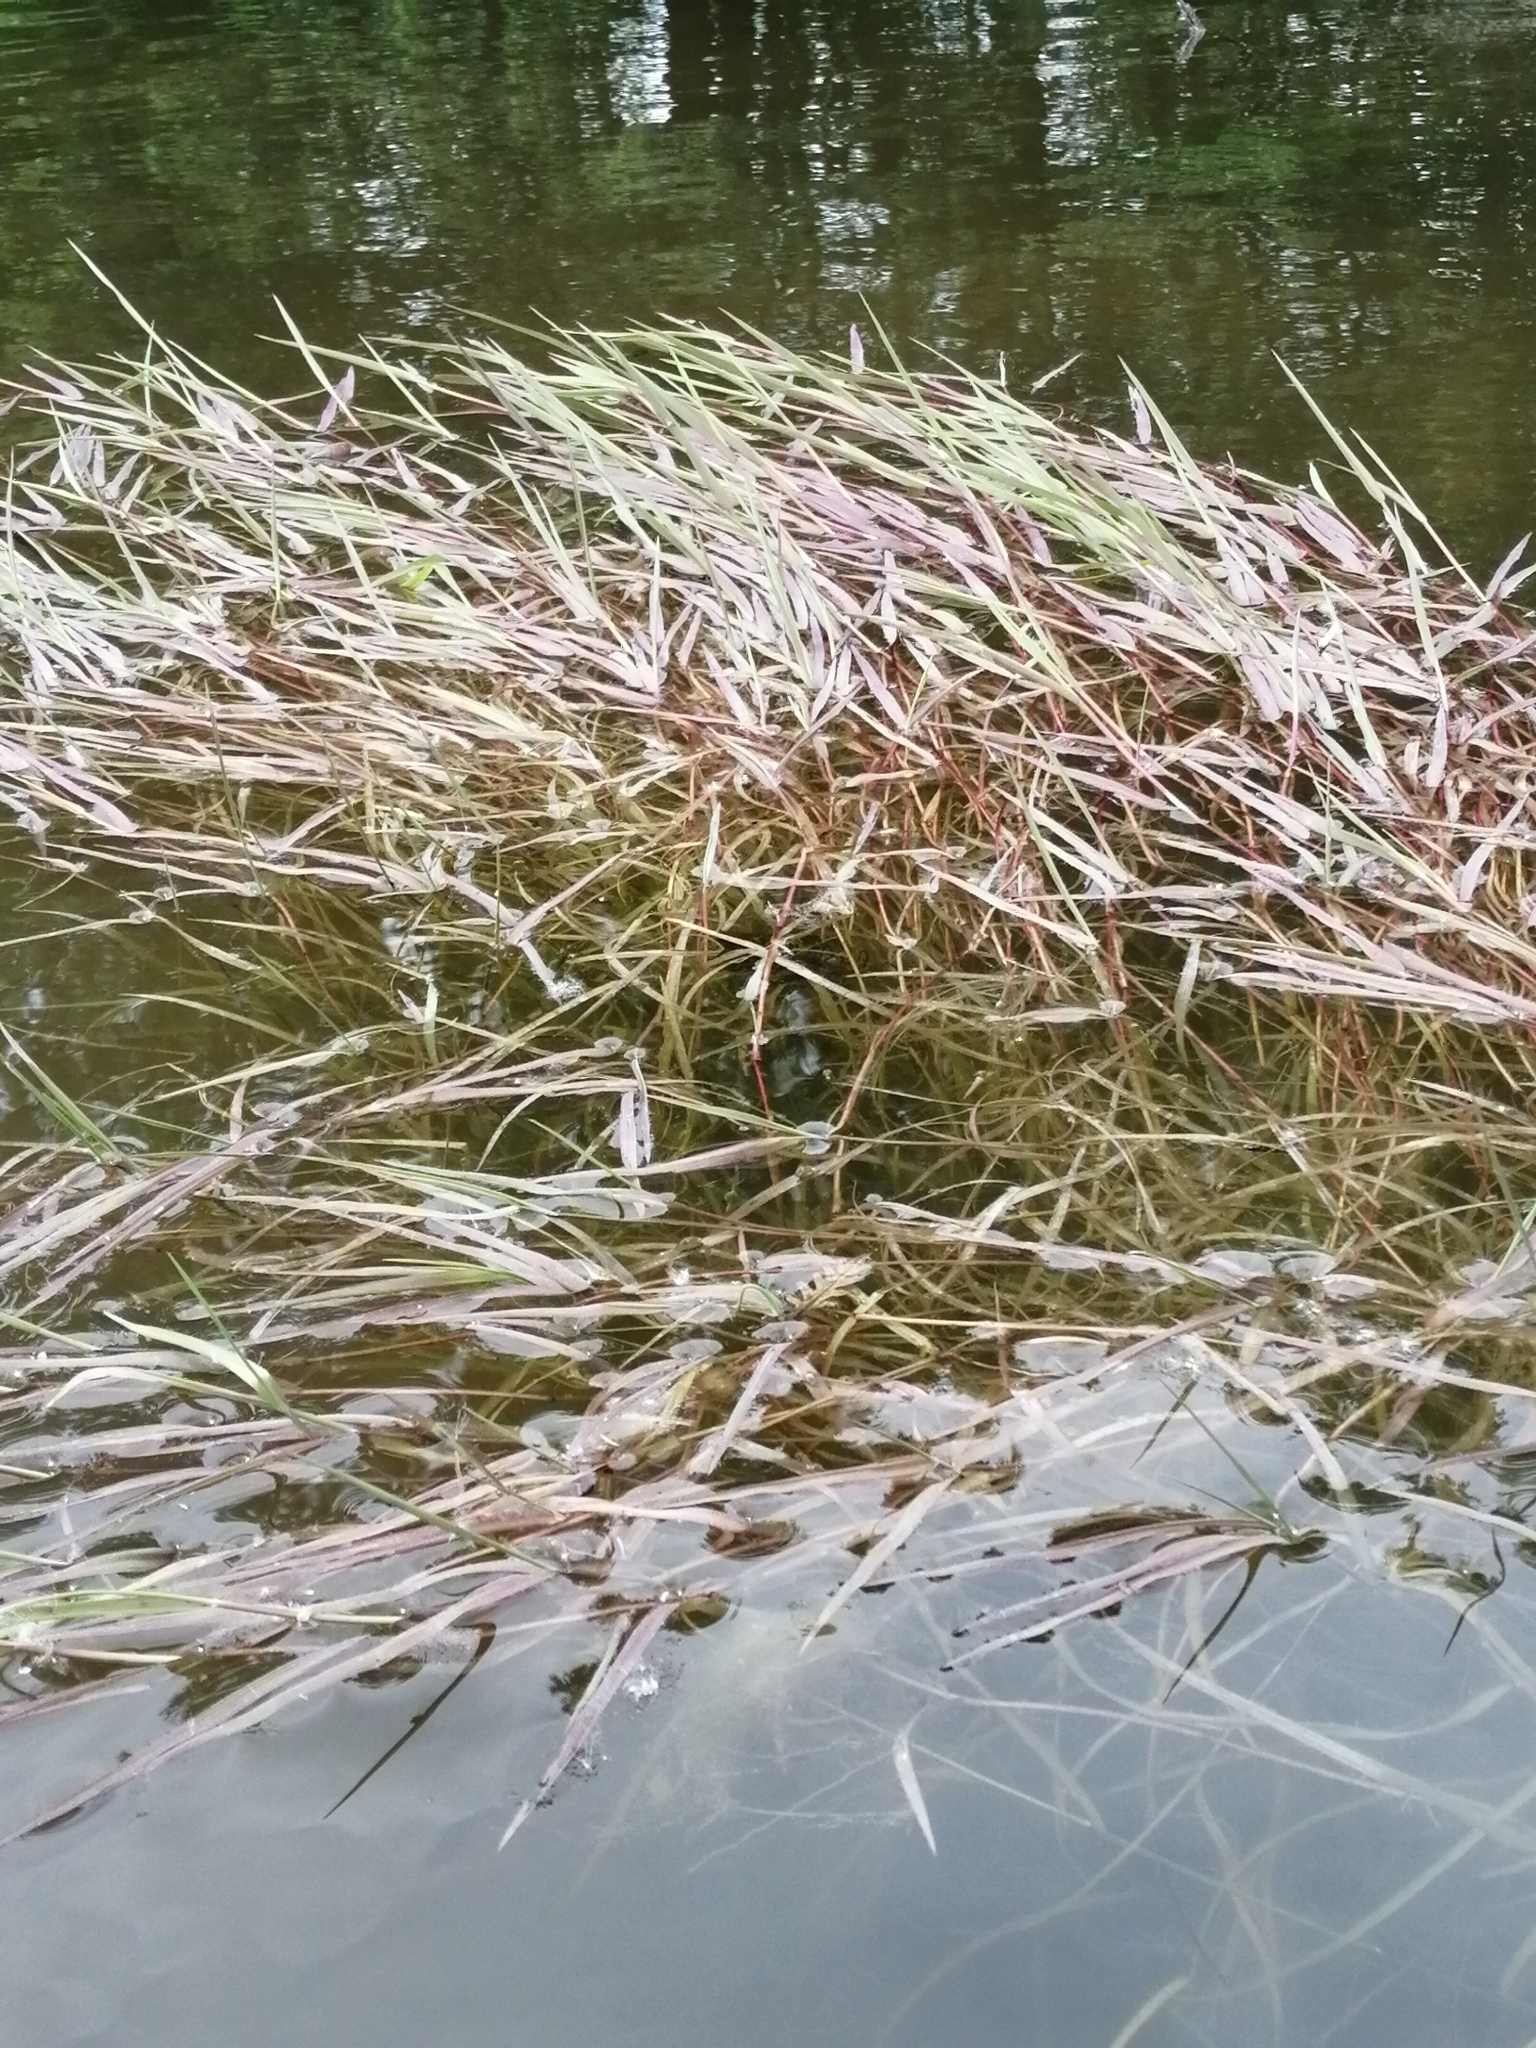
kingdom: Plantae
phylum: Tracheophyta
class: Liliopsida
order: Poales
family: Poaceae
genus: Agrostis
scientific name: Agrostis stolonifera
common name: Creeping bentgrass
